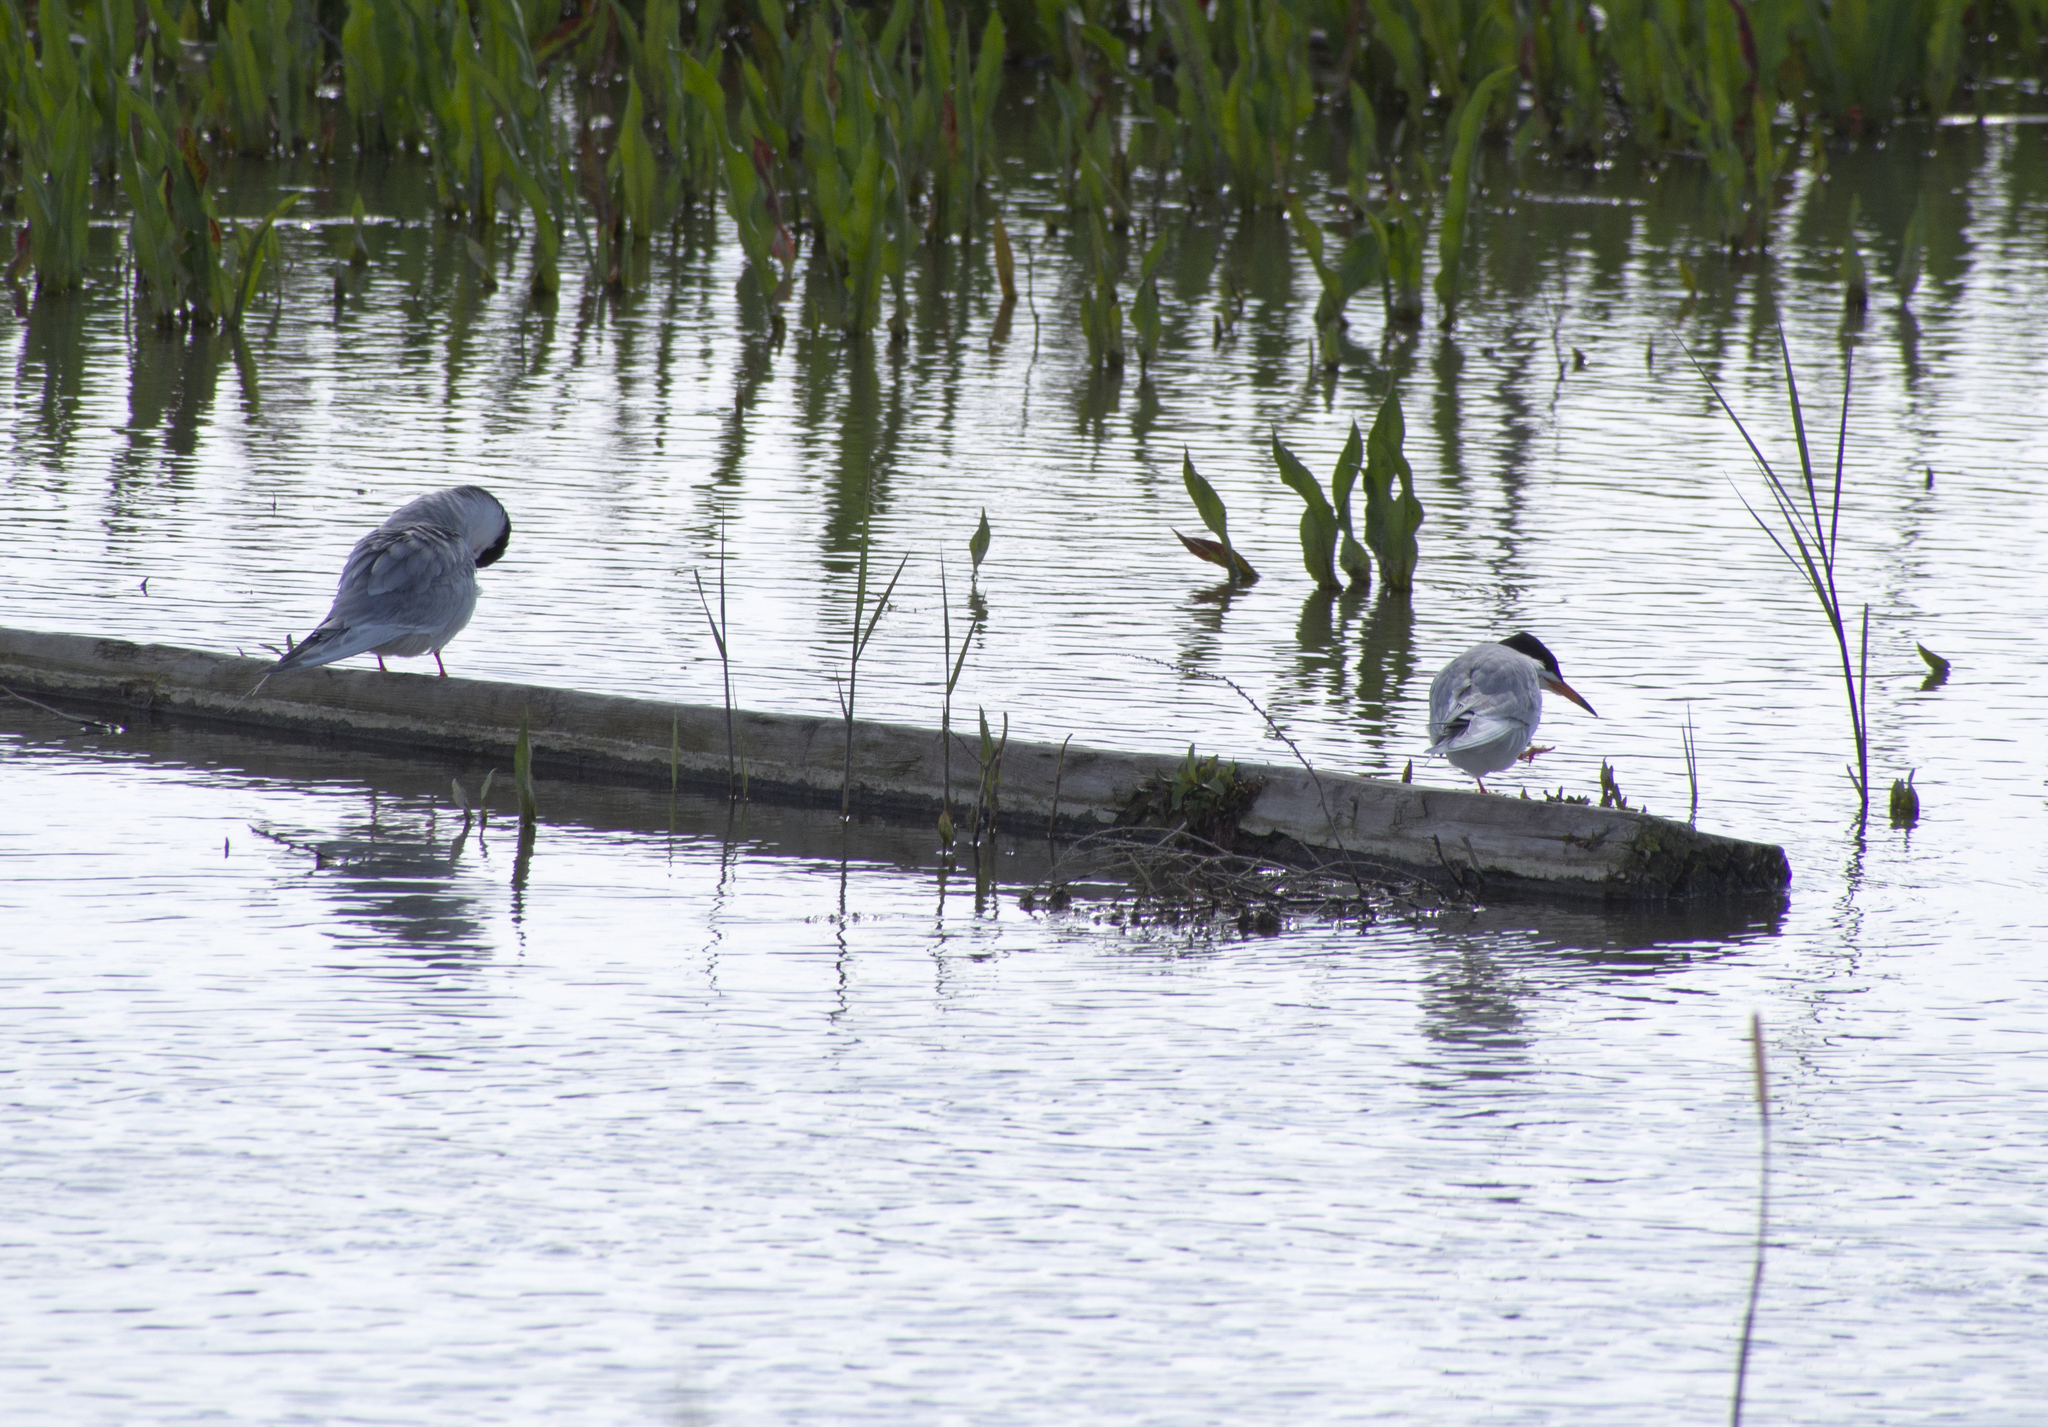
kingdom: Animalia
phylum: Chordata
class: Aves
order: Charadriiformes
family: Laridae
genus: Sterna
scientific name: Sterna forsteri
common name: Forster's tern
